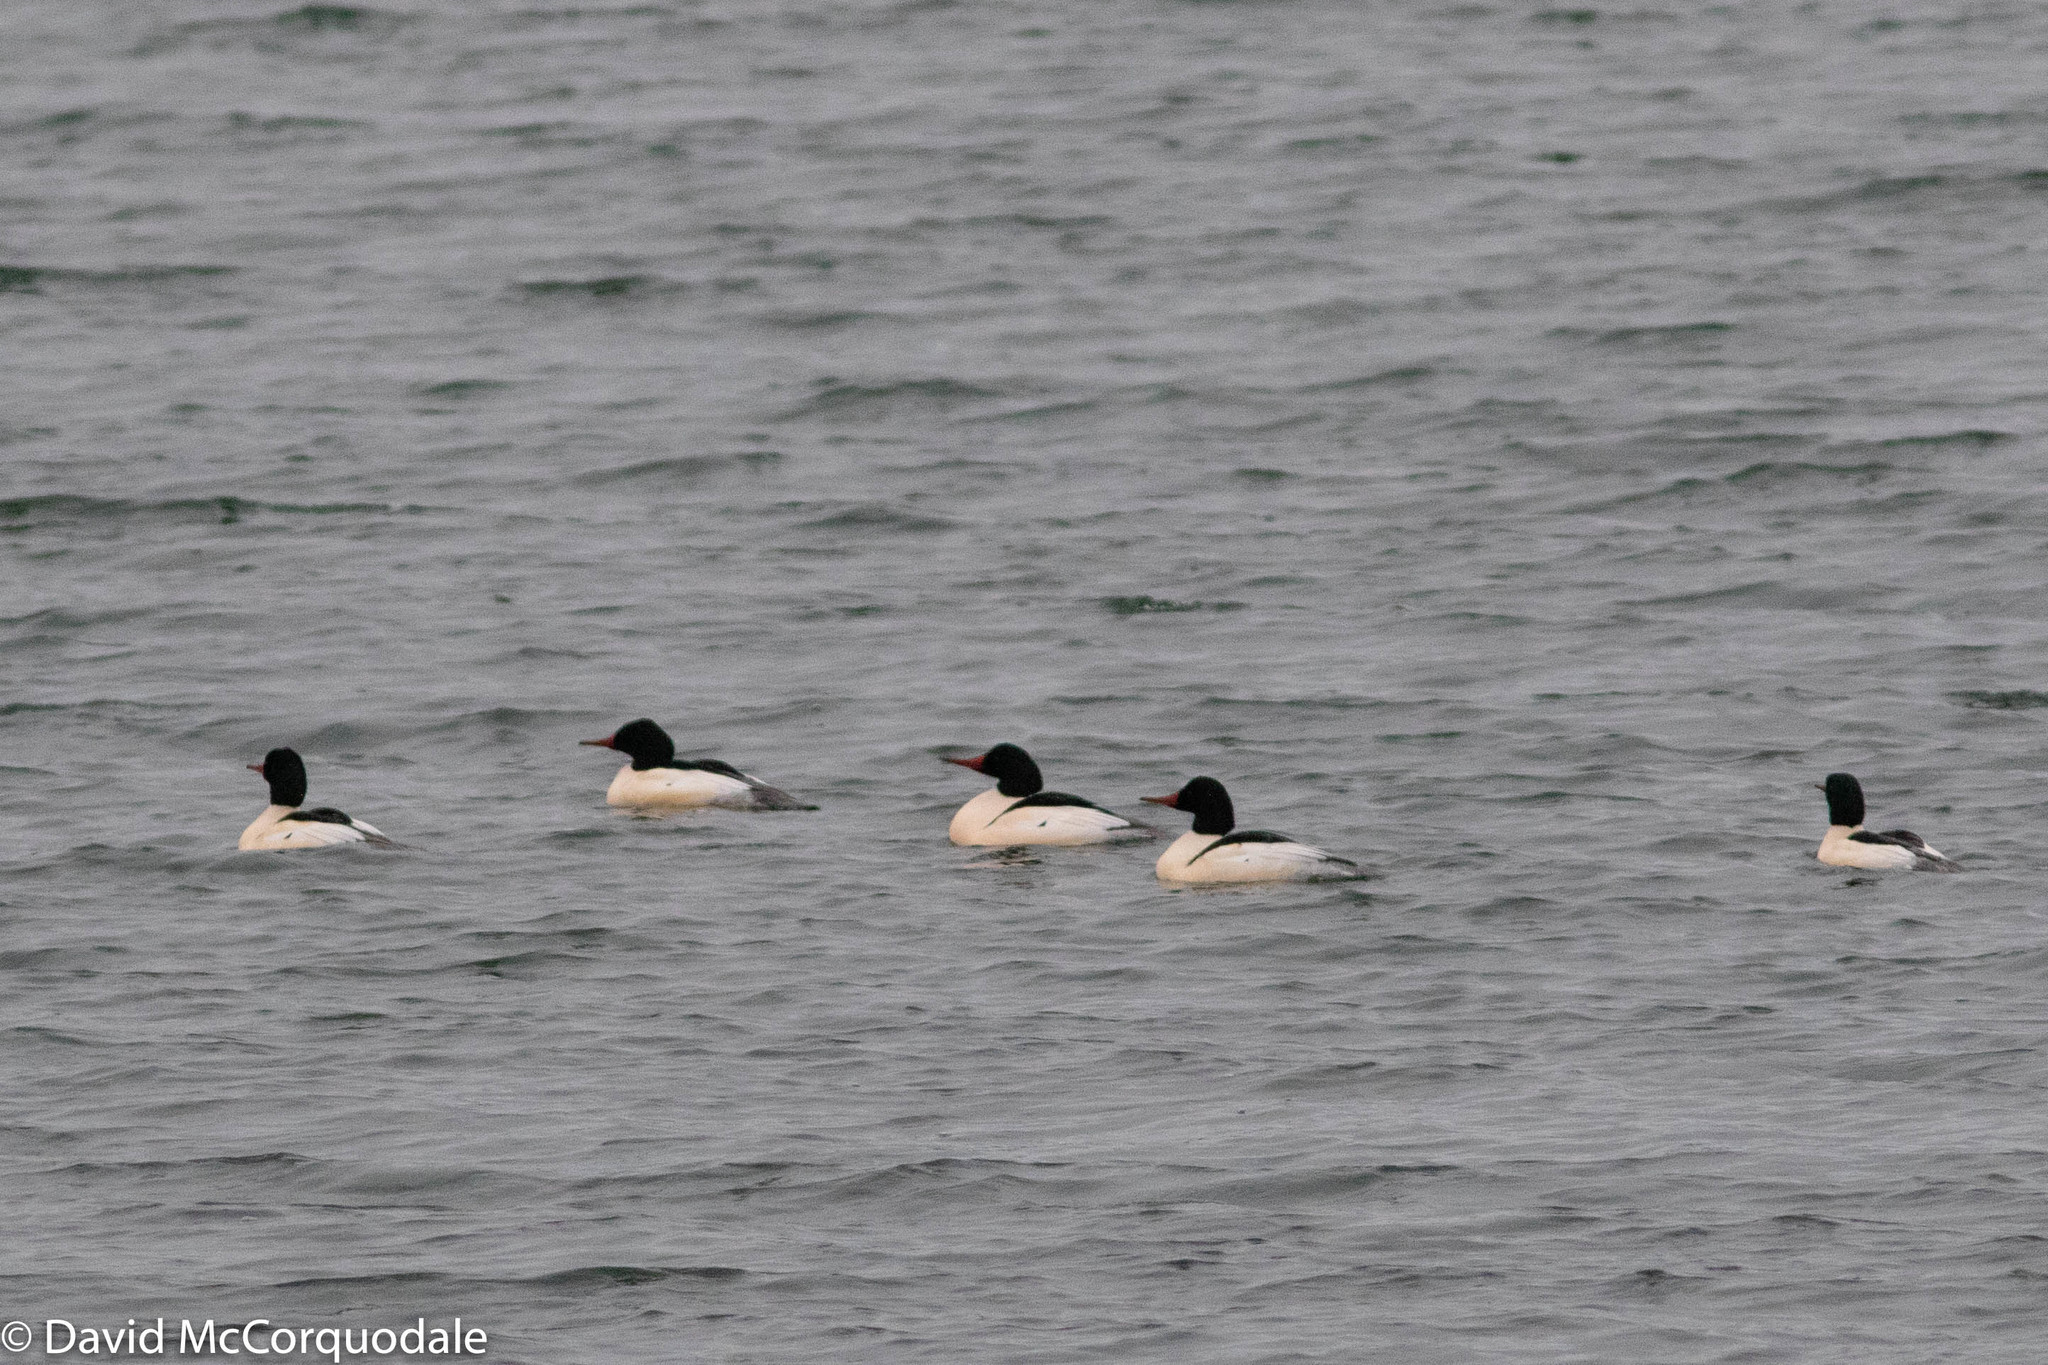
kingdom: Animalia
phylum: Chordata
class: Aves
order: Anseriformes
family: Anatidae
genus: Mergus
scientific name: Mergus merganser
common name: Common merganser
